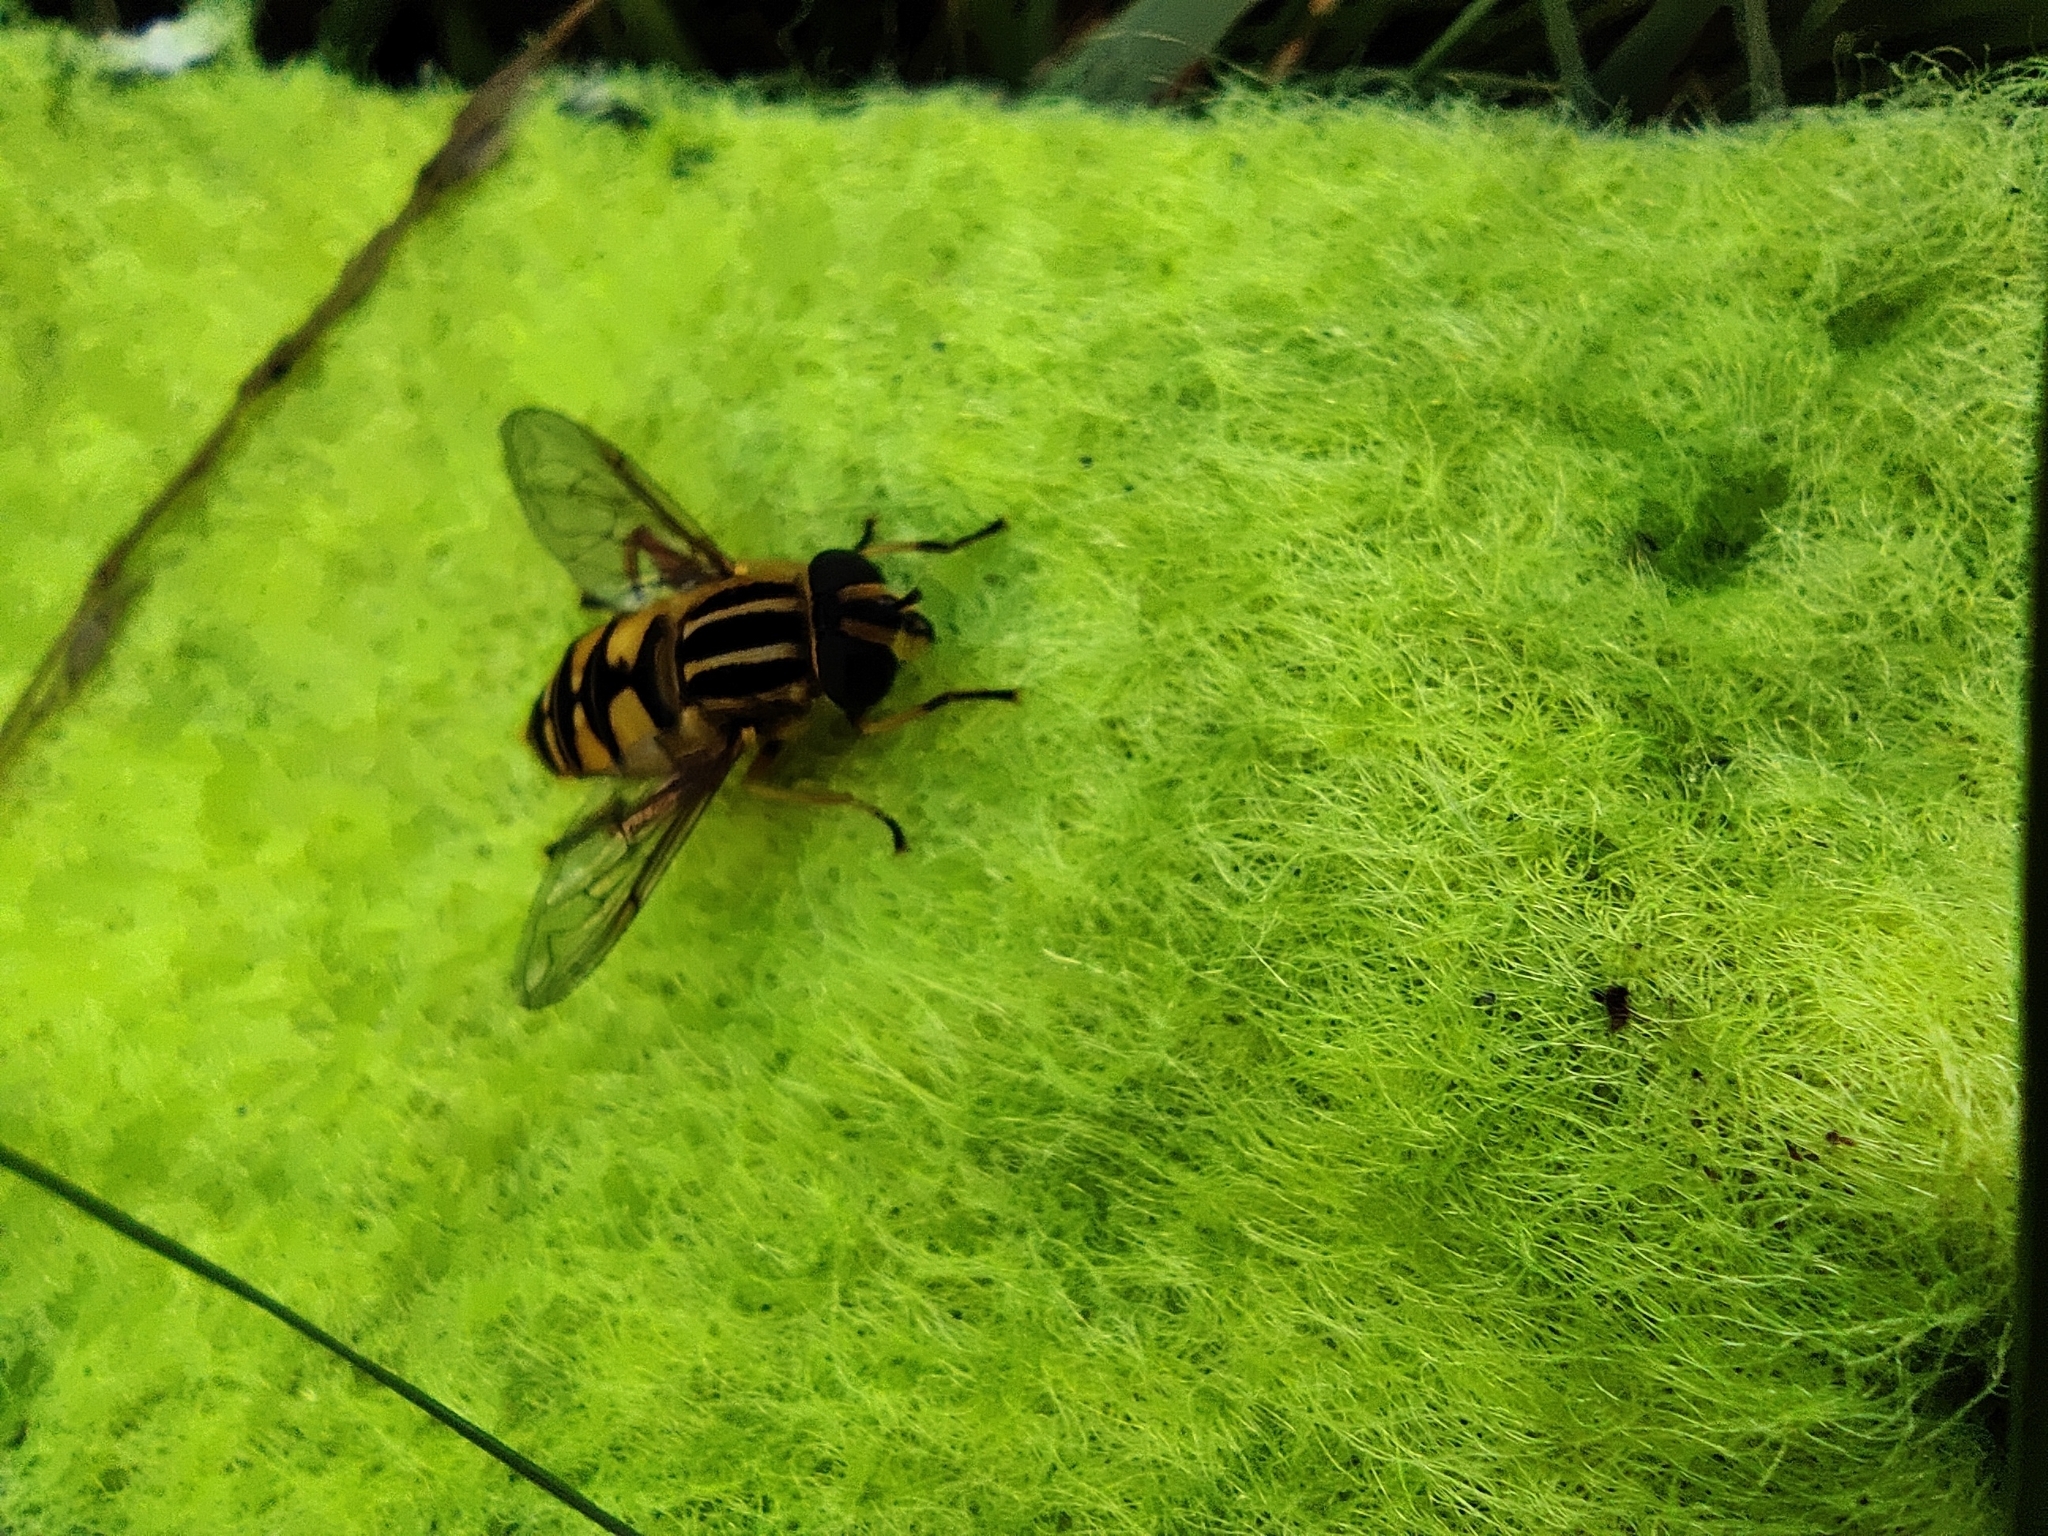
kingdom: Animalia
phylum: Arthropoda
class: Insecta
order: Diptera
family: Syrphidae
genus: Helophilus
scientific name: Helophilus pendulus
